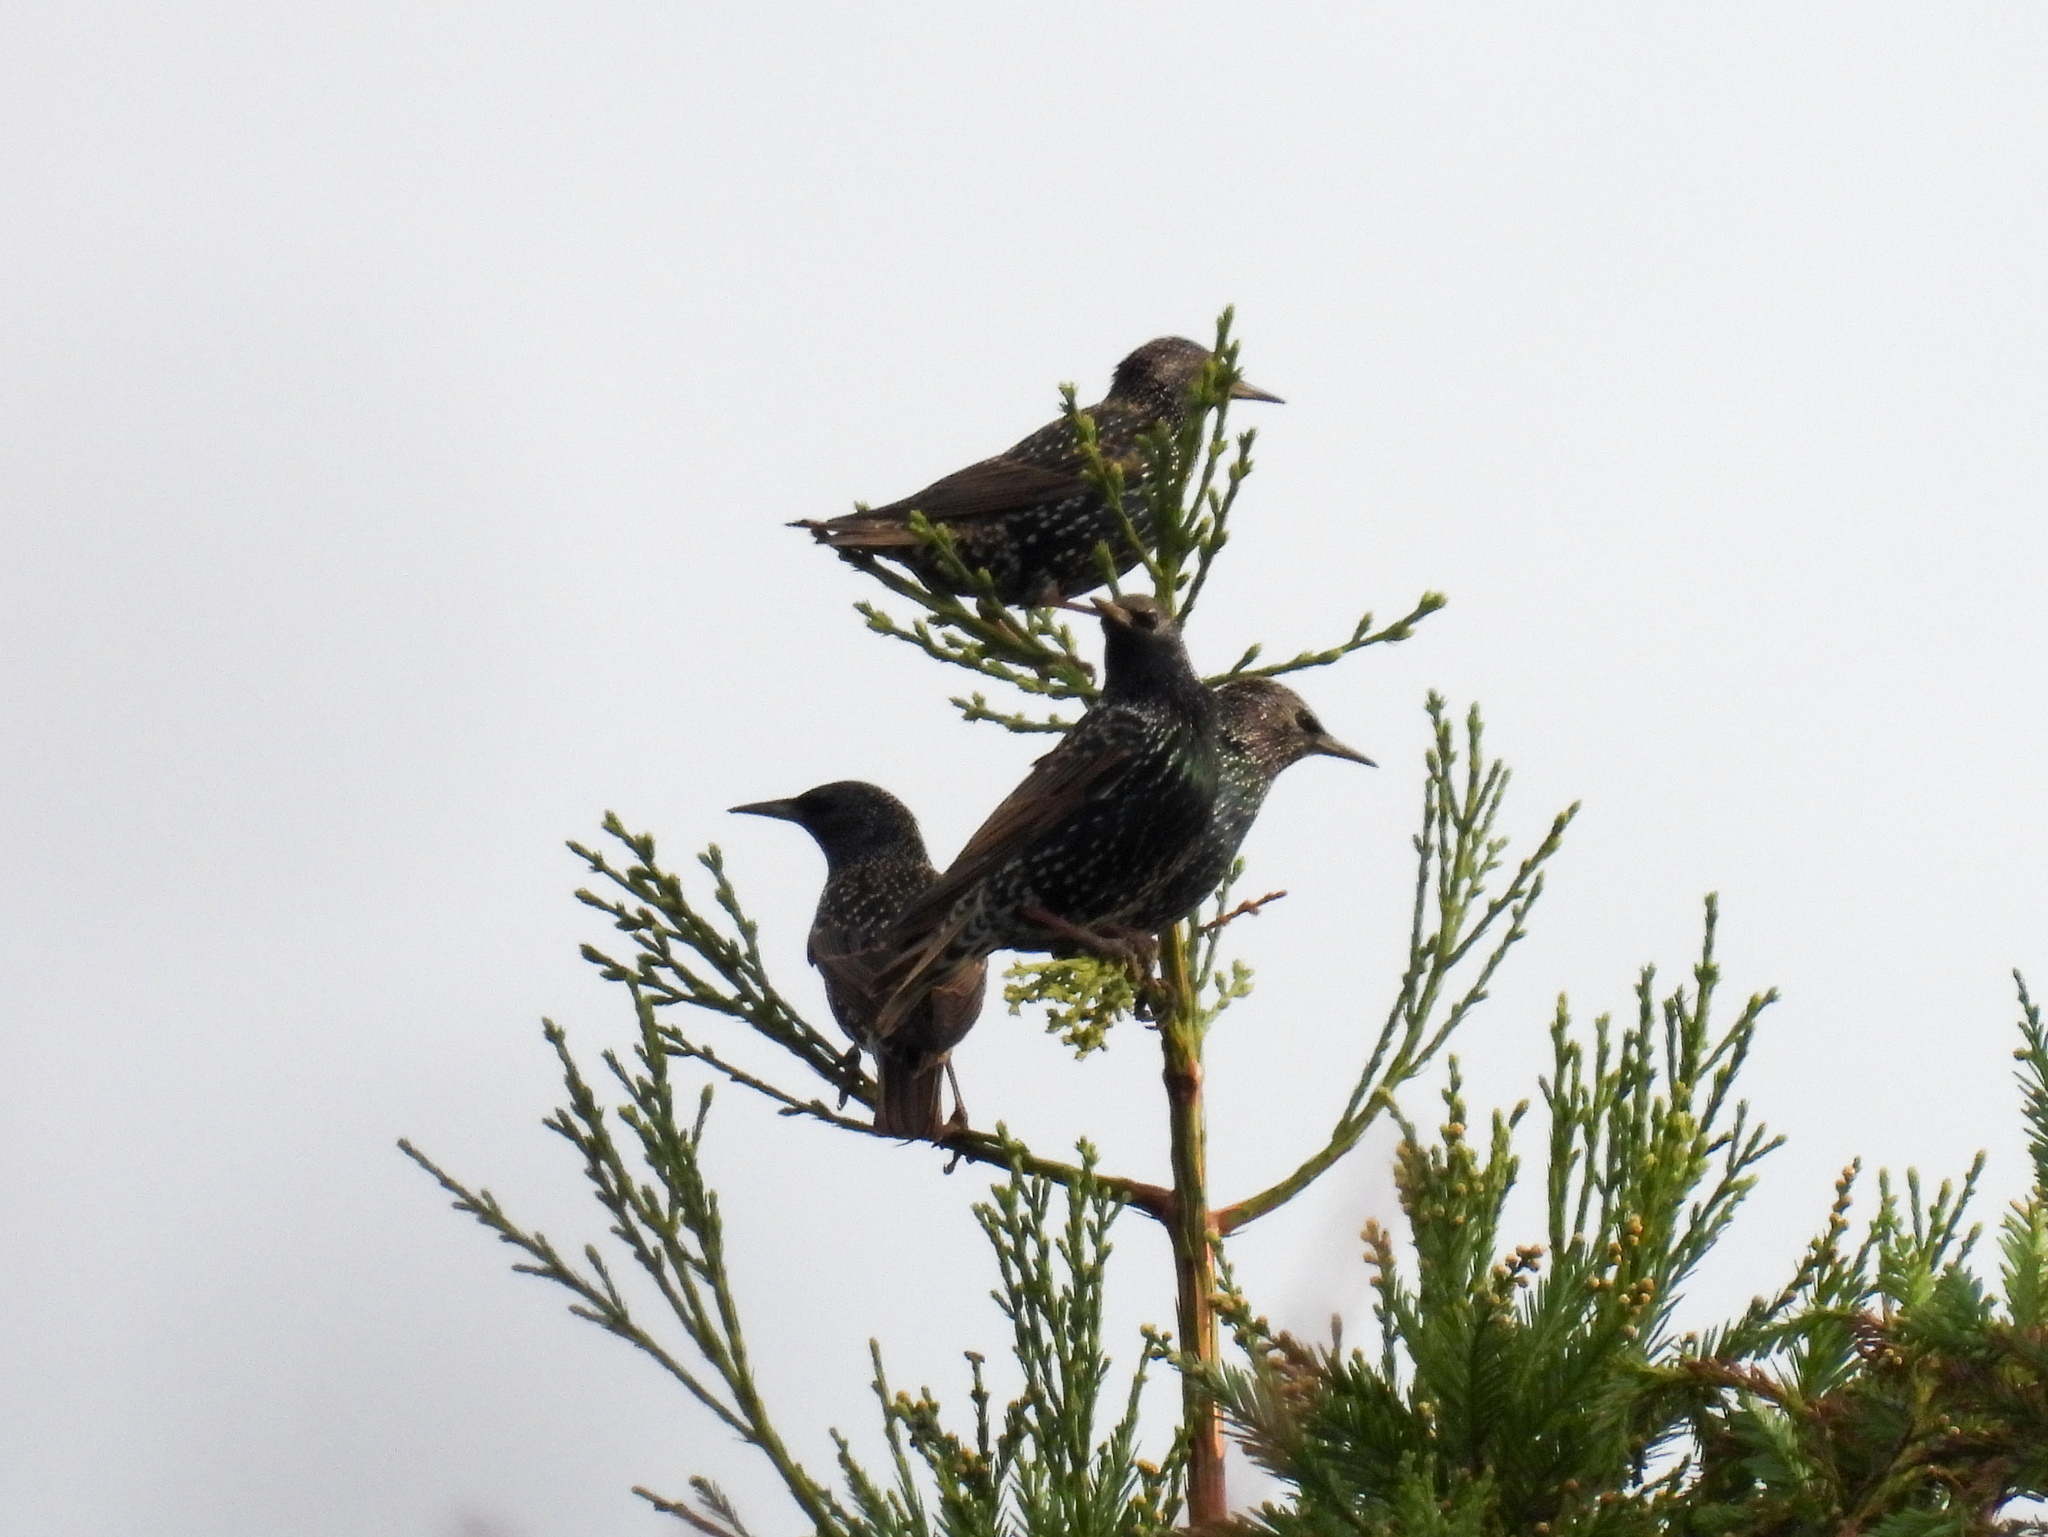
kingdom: Animalia
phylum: Chordata
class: Aves
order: Passeriformes
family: Sturnidae
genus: Sturnus
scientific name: Sturnus vulgaris
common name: Common starling
